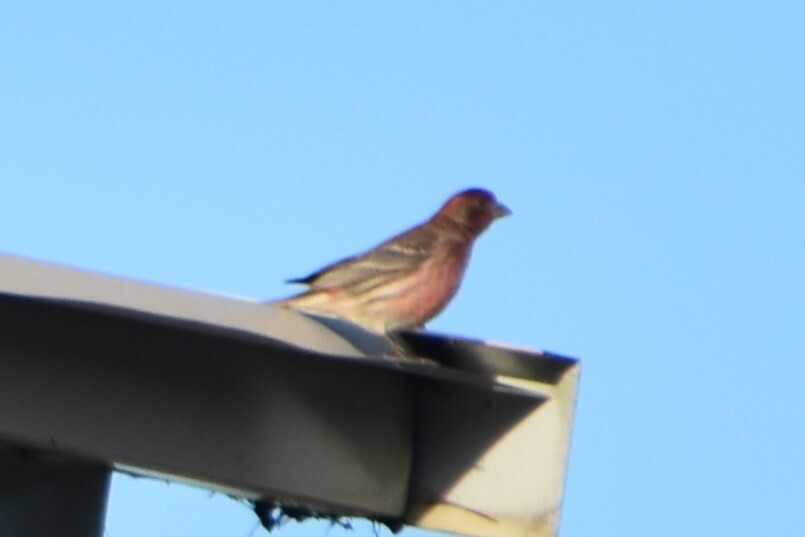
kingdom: Animalia
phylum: Chordata
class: Aves
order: Passeriformes
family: Fringillidae
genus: Haemorhous
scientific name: Haemorhous mexicanus
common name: House finch
